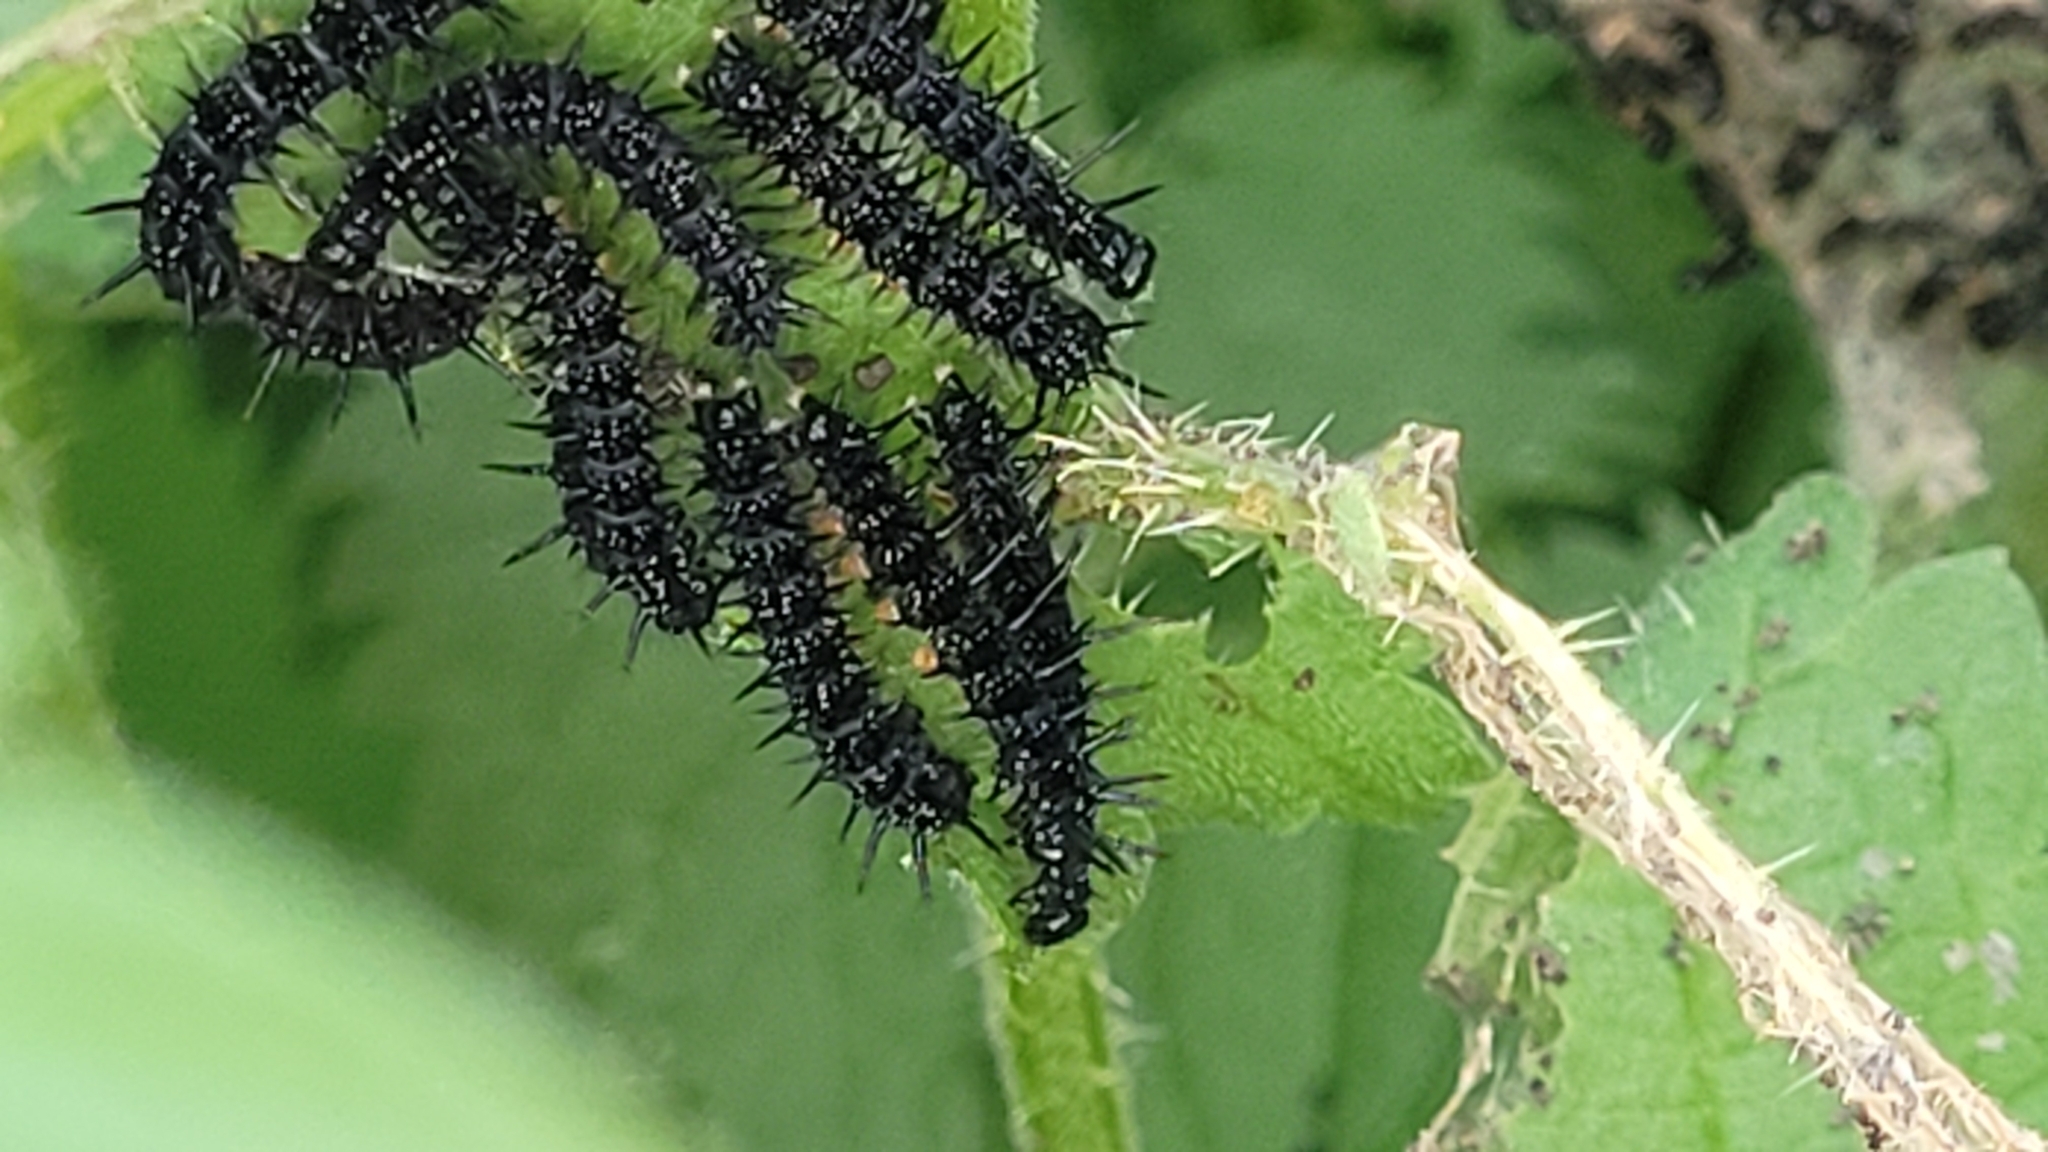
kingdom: Animalia
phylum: Arthropoda
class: Insecta
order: Lepidoptera
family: Nymphalidae
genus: Aglais
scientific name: Aglais io
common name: Peacock
